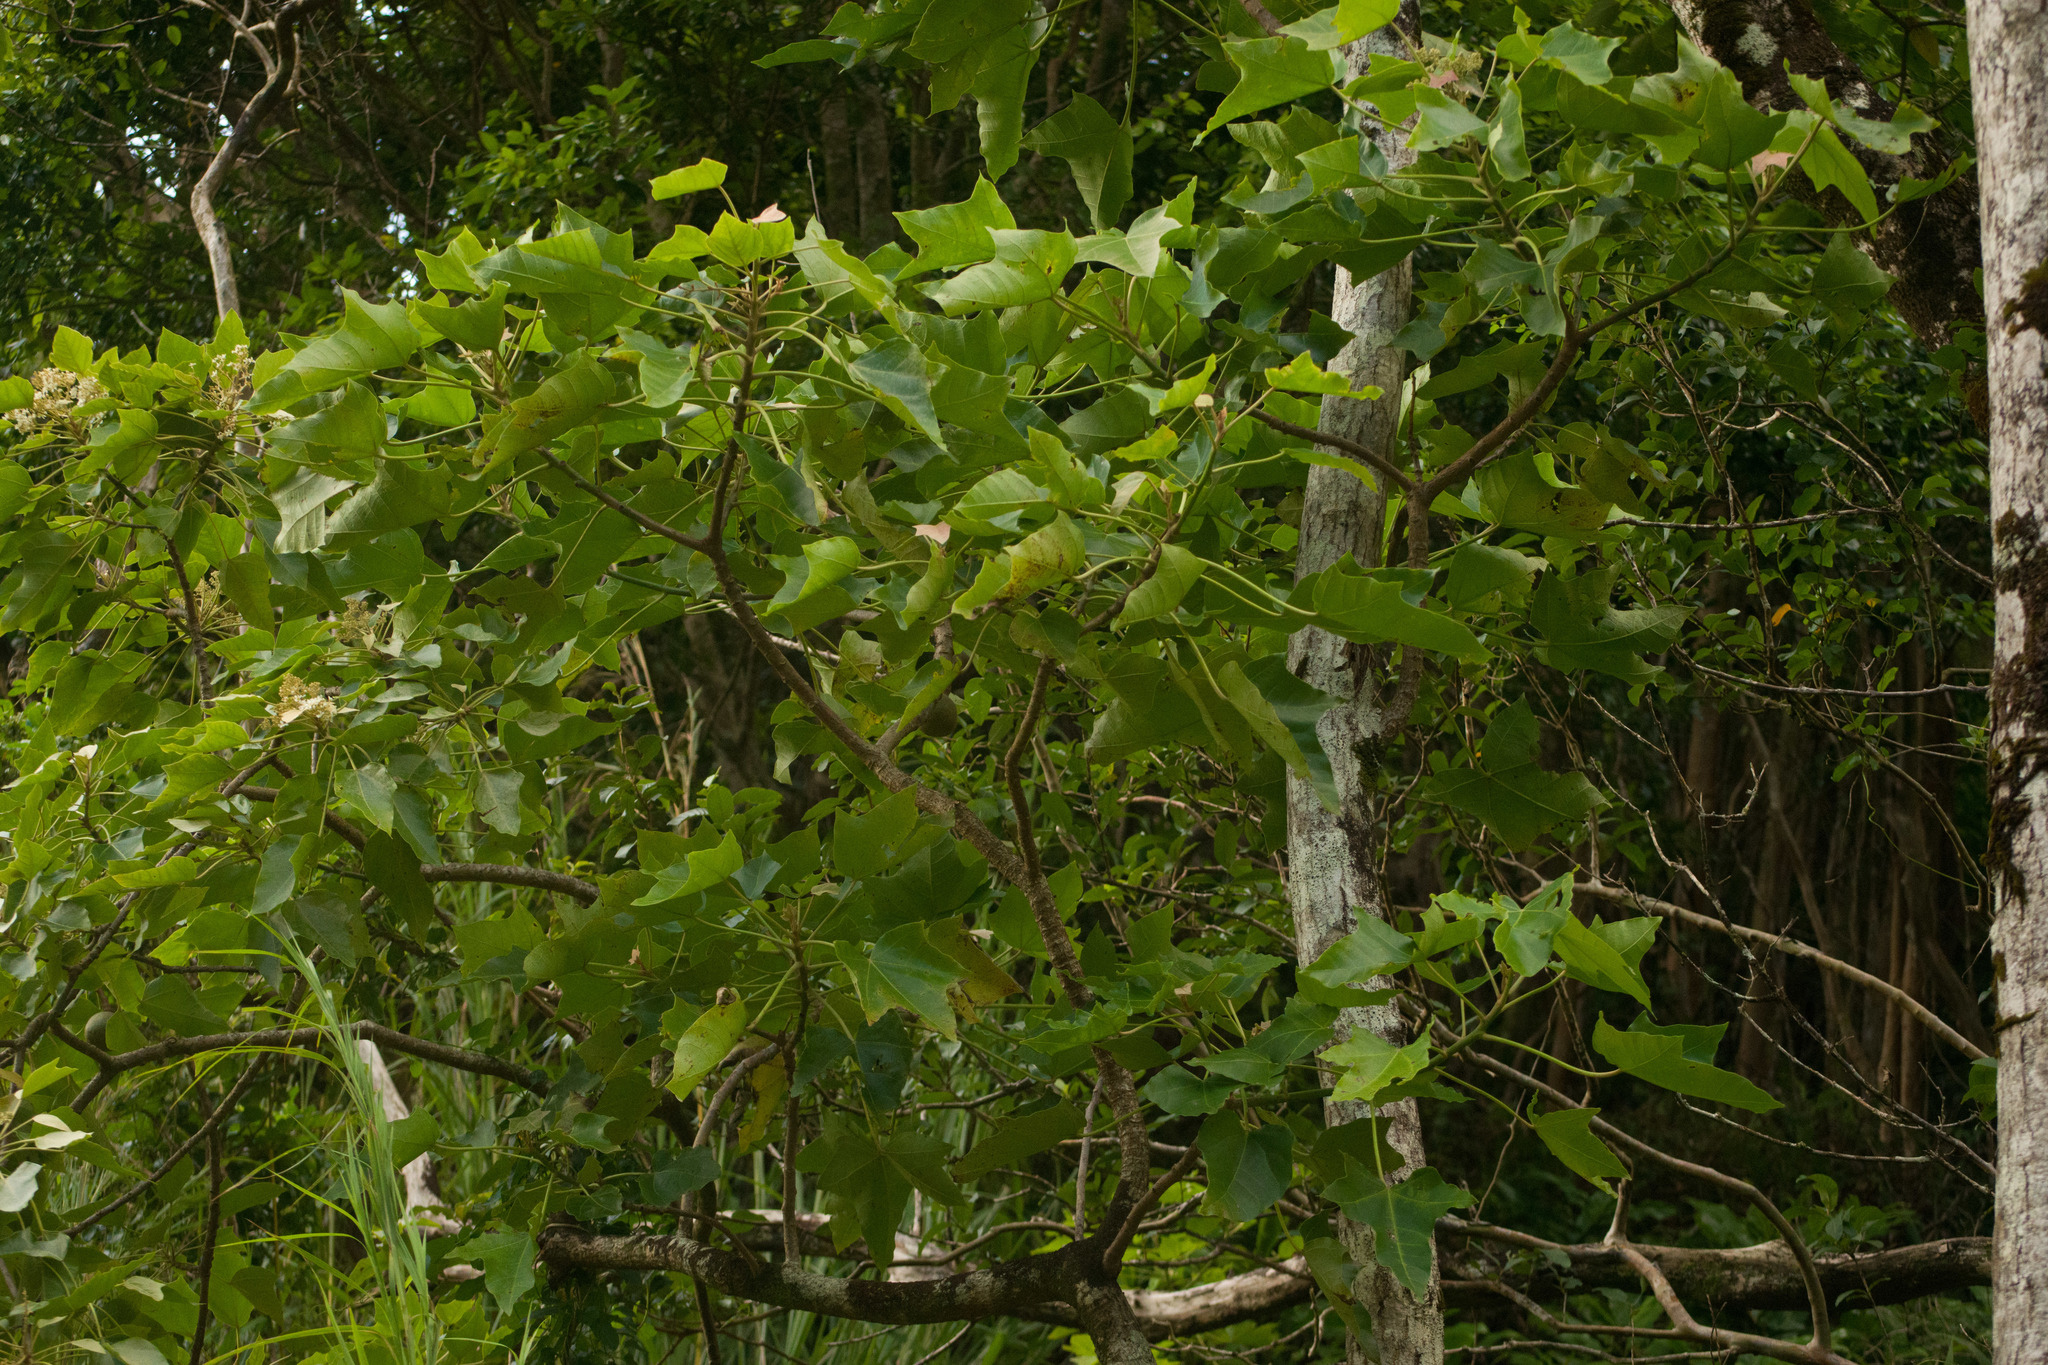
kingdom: Plantae
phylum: Tracheophyta
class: Magnoliopsida
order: Malpighiales
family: Euphorbiaceae
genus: Aleurites
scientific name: Aleurites moluccanus
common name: Candlenut tree
